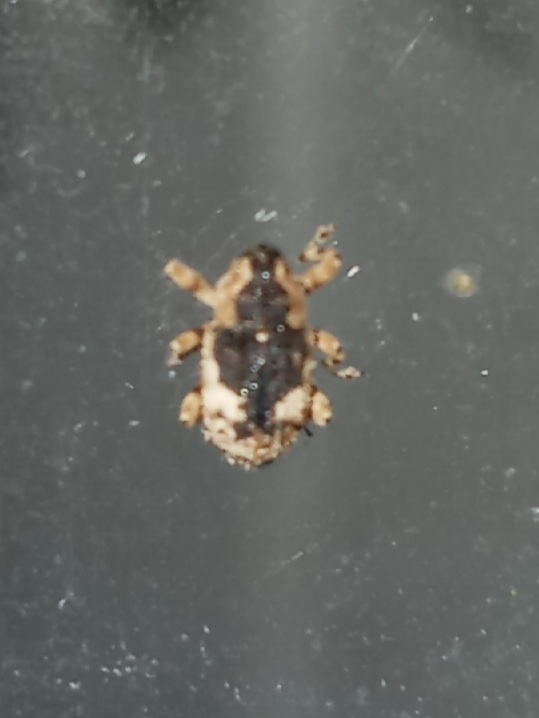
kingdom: Animalia
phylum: Arthropoda
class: Insecta
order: Coleoptera
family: Curculionidae
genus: Cophes
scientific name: Cophes fallax
